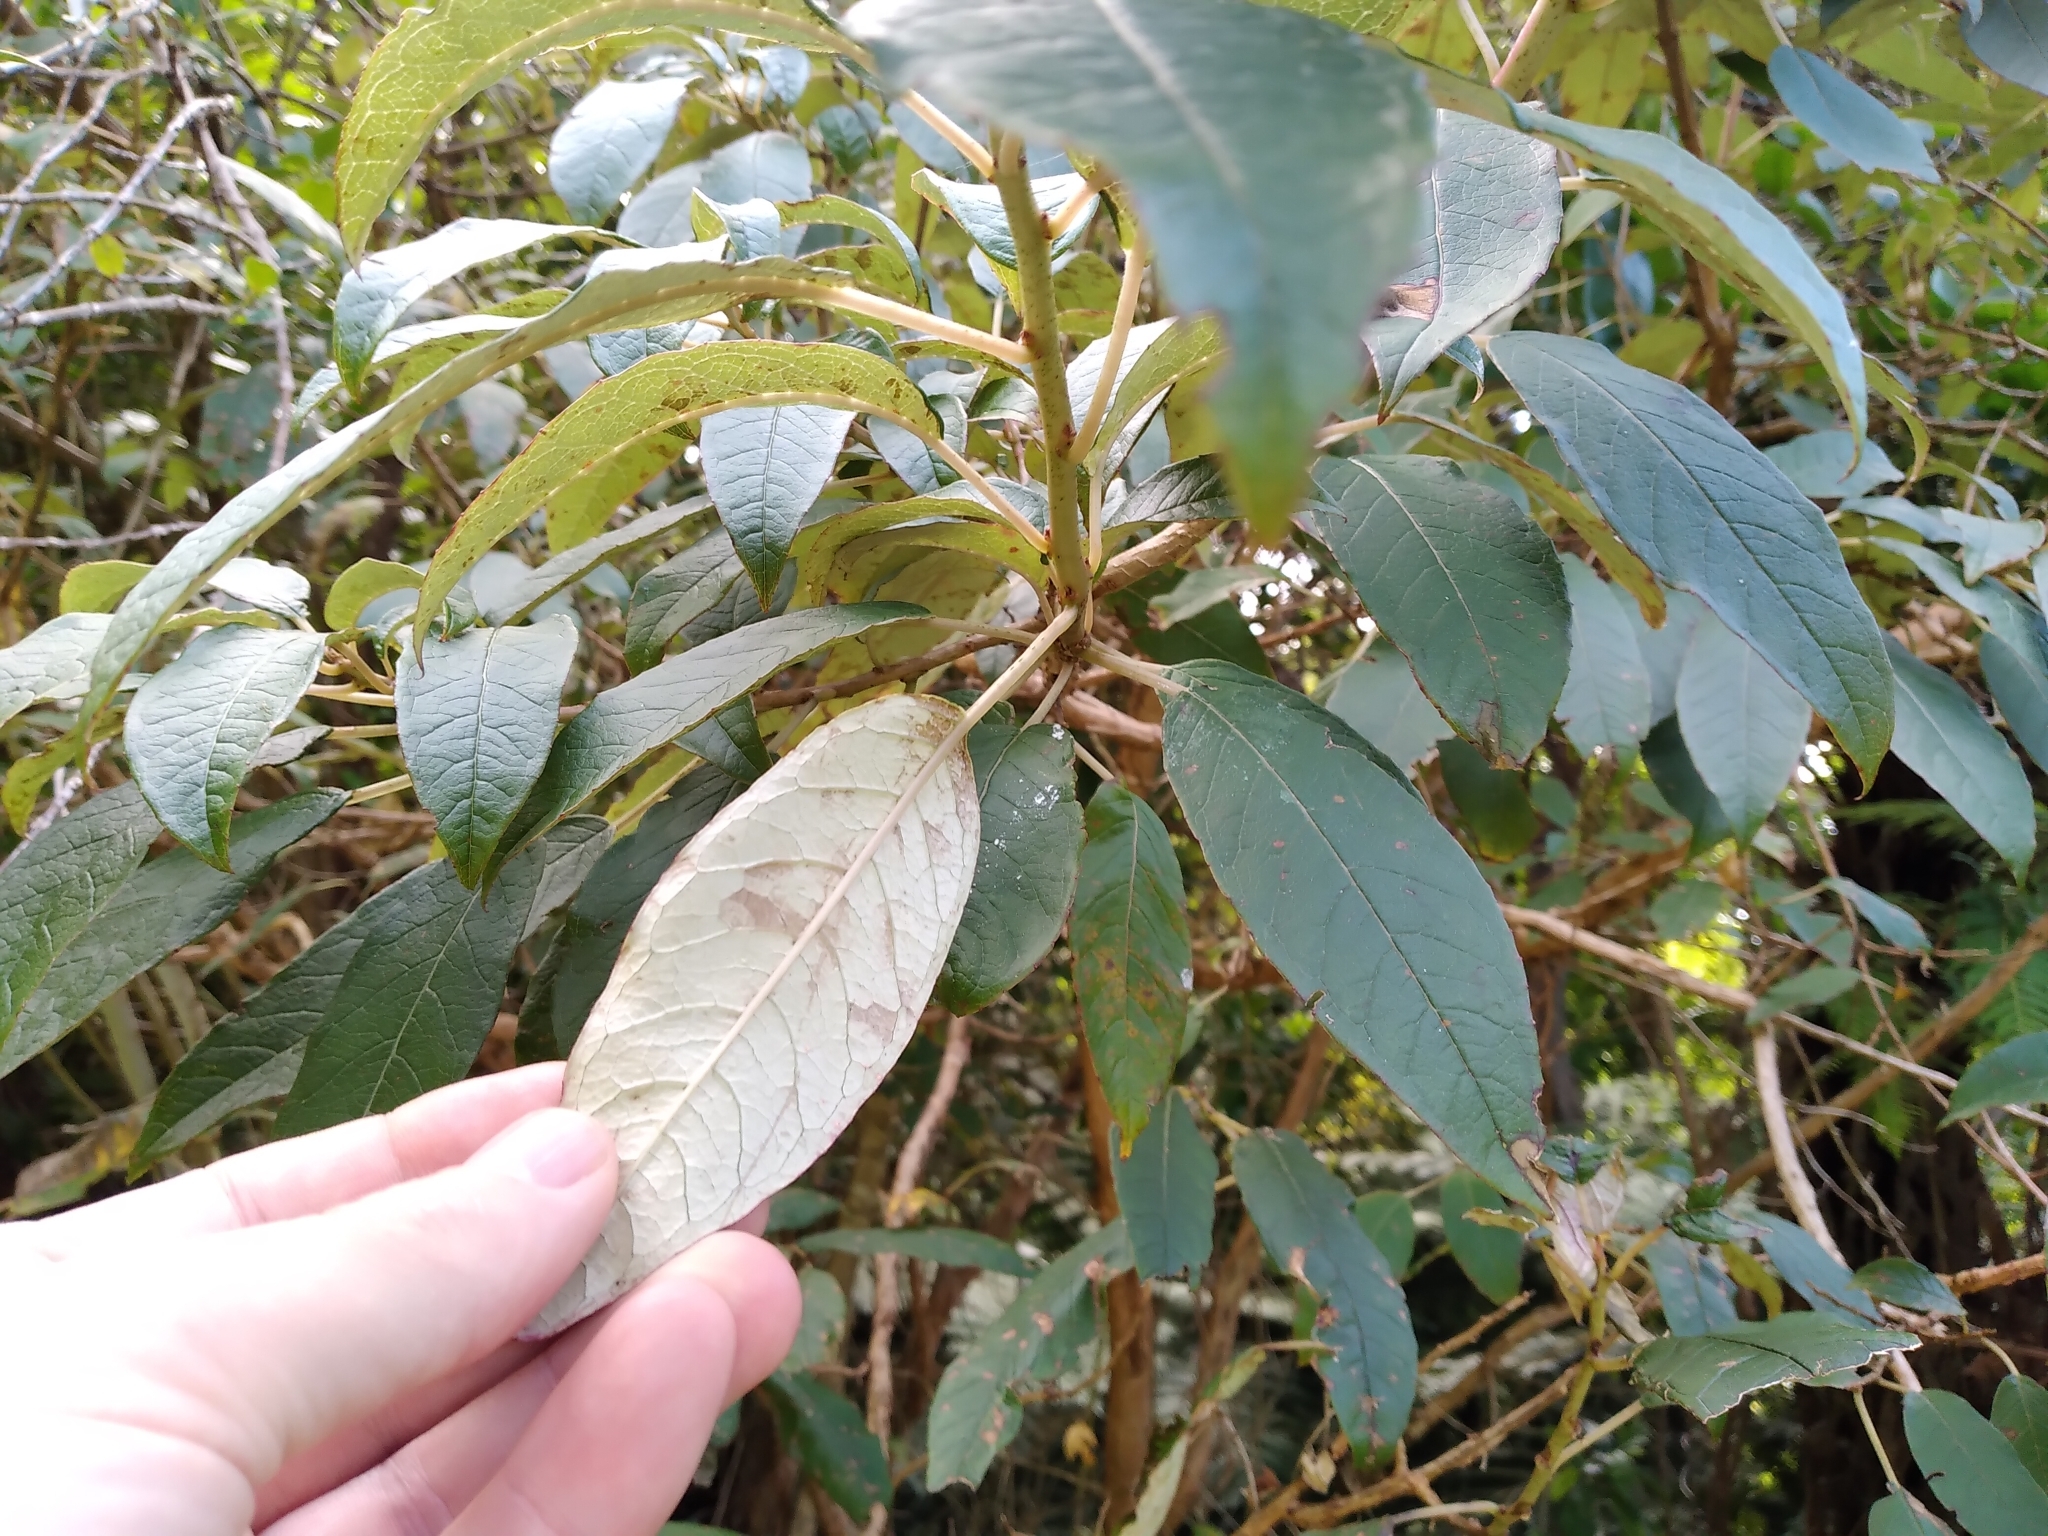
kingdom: Plantae
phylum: Tracheophyta
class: Magnoliopsida
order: Myrtales
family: Onagraceae
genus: Fuchsia
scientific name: Fuchsia excorticata
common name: Tree fuchsia
